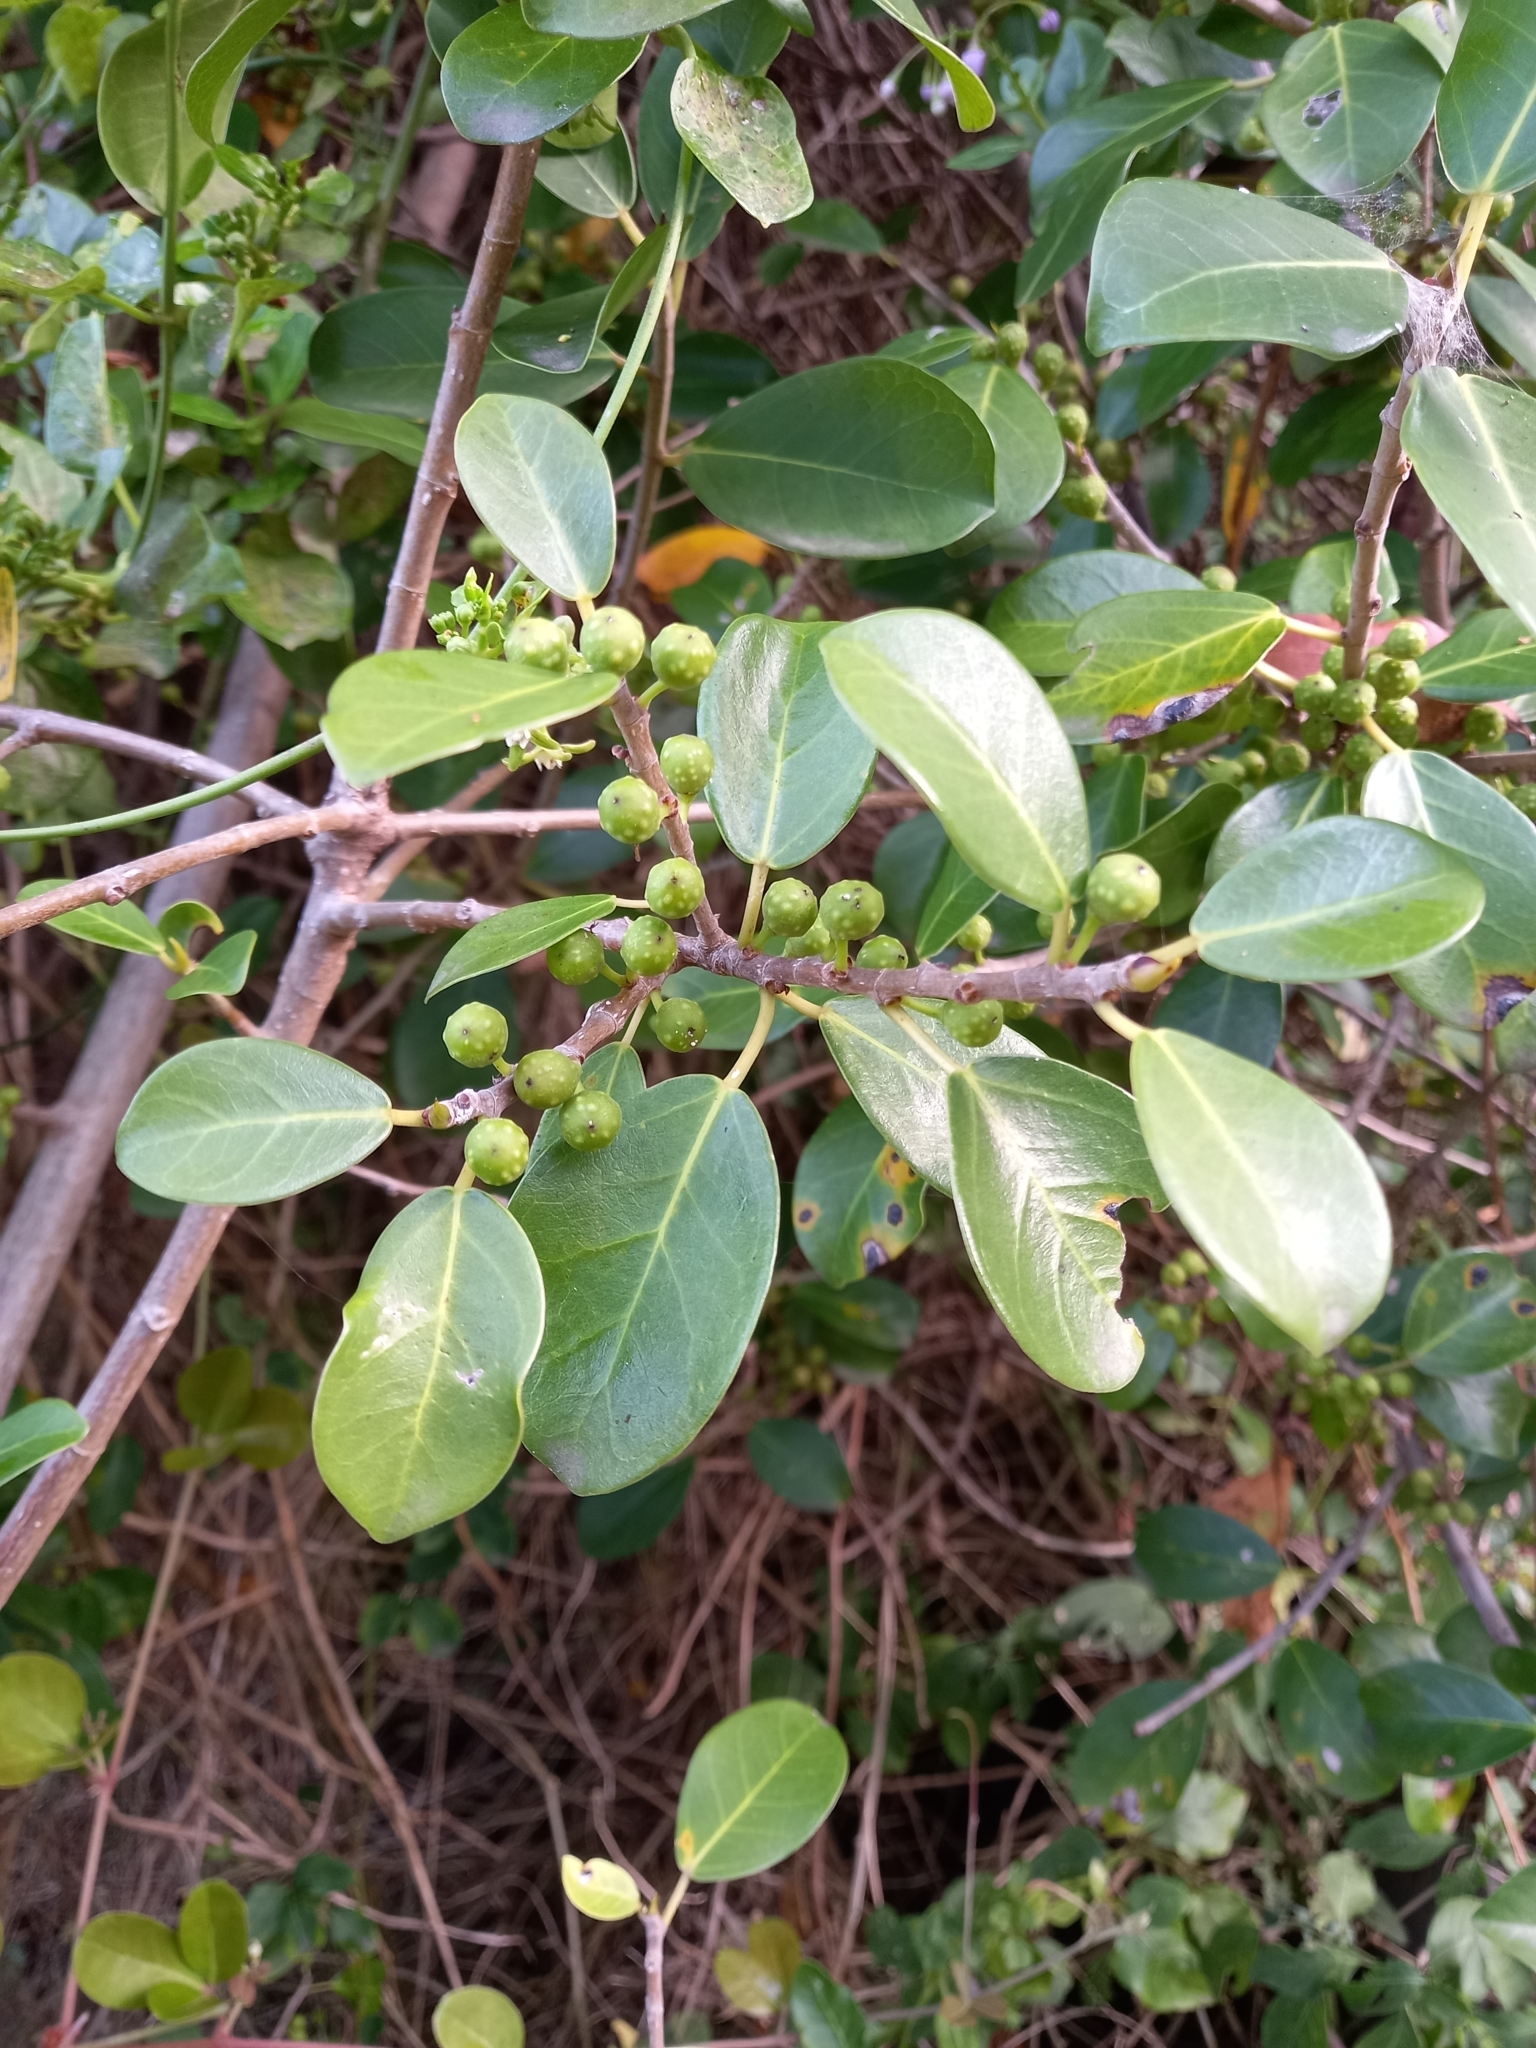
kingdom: Plantae
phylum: Tracheophyta
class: Magnoliopsida
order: Rosales
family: Moraceae
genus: Ficus
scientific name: Ficus burtt-davyi
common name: Scrambling fig
